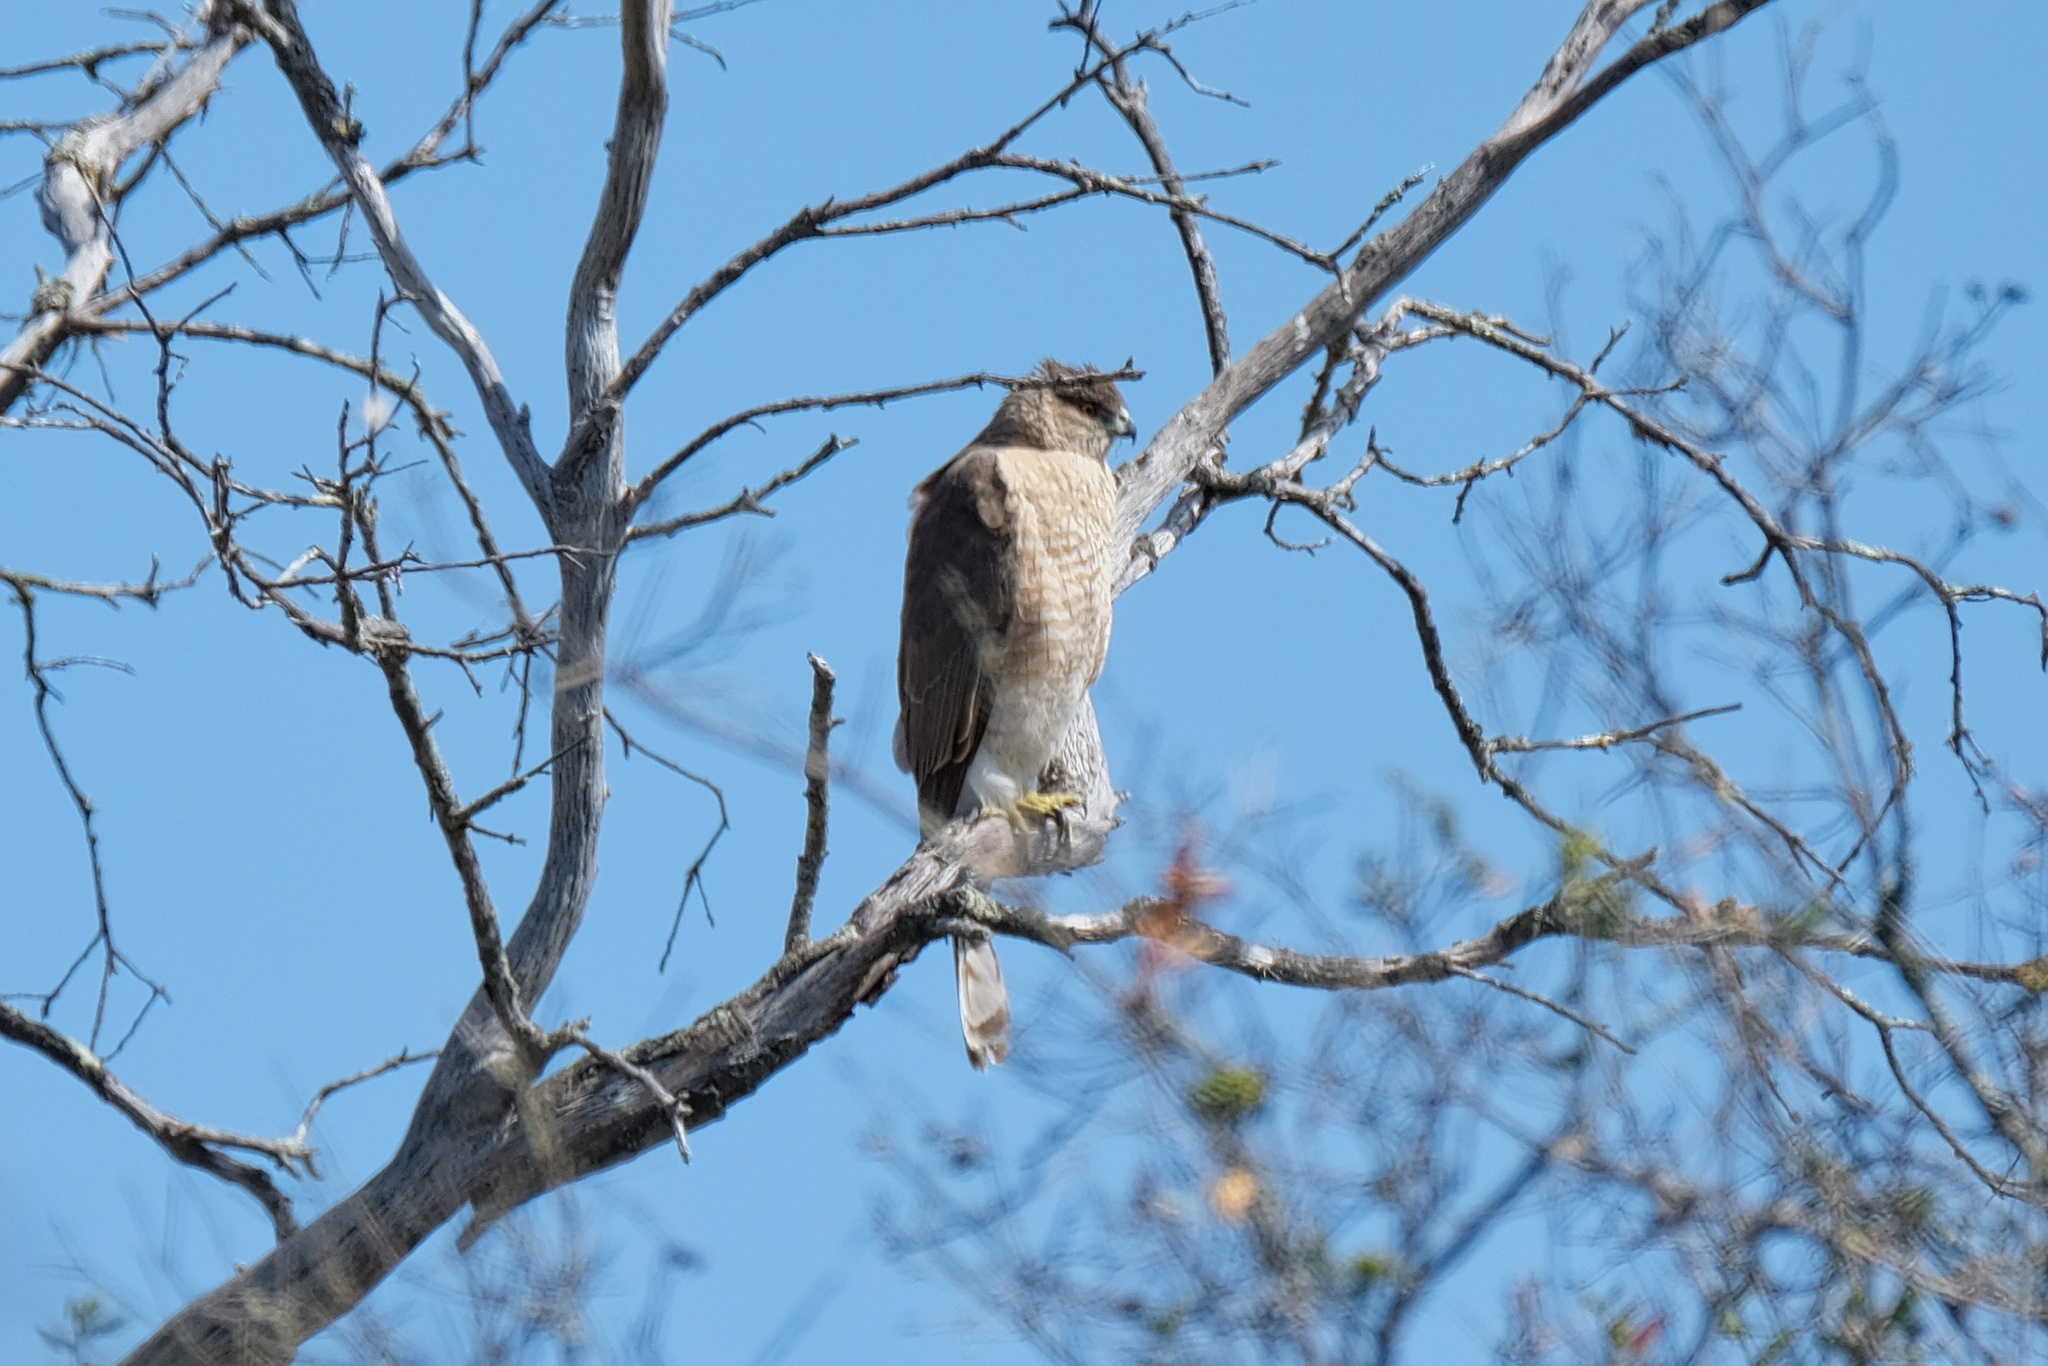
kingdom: Animalia
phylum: Chordata
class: Aves
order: Accipitriformes
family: Accipitridae
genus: Accipiter
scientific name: Accipiter cooperii
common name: Cooper's hawk
